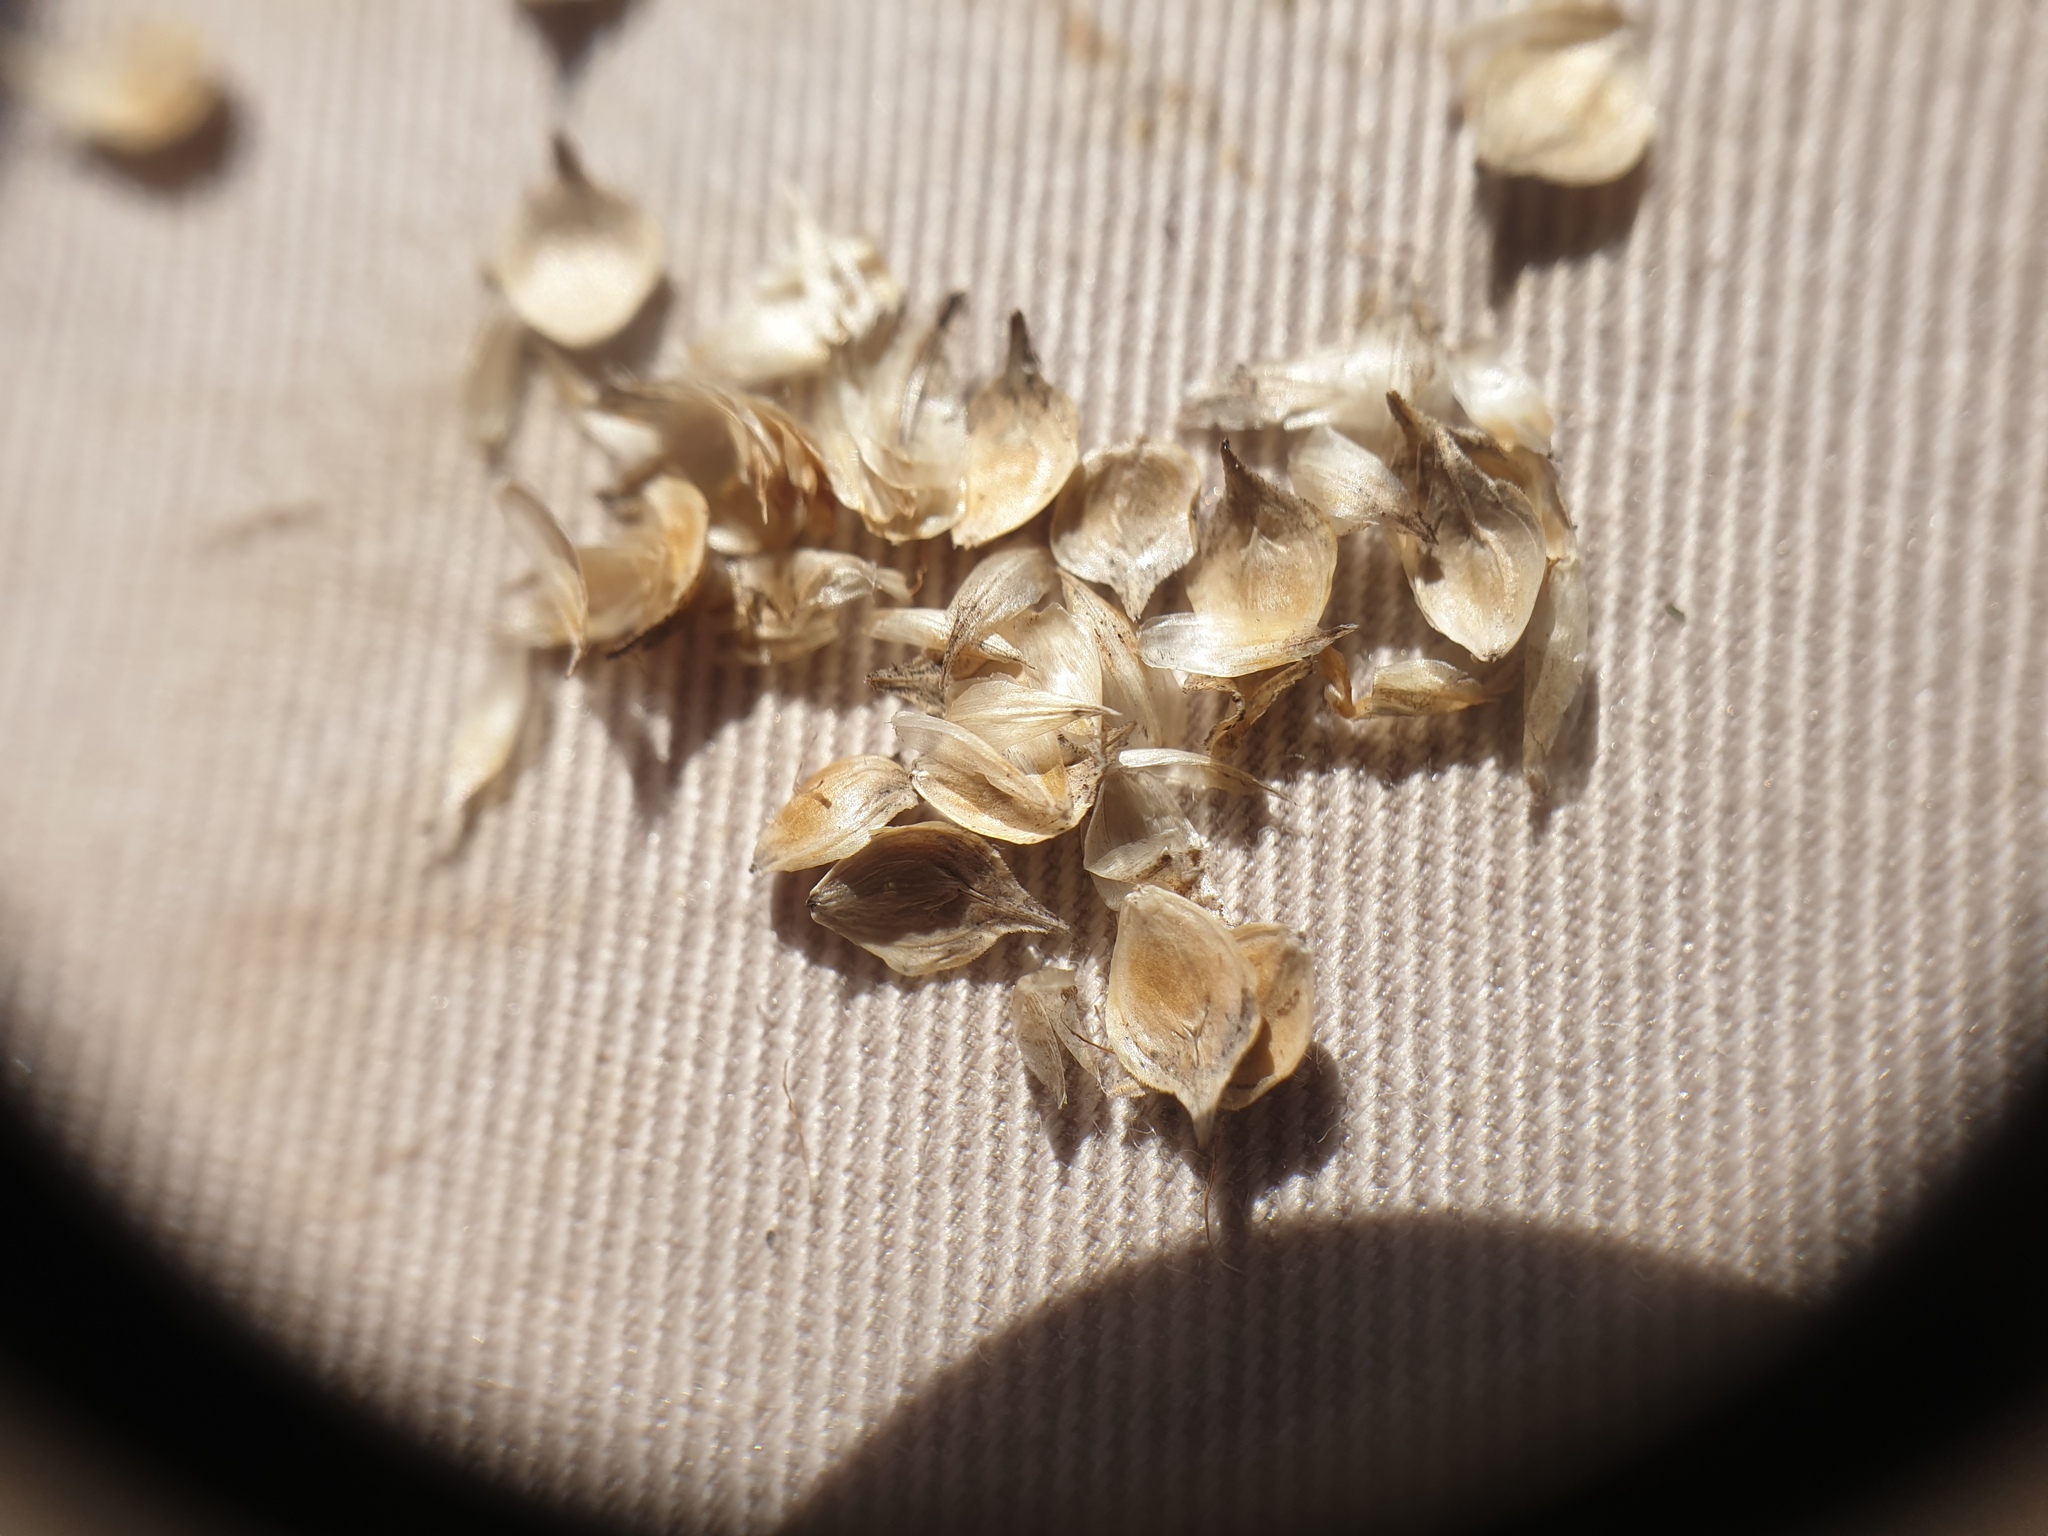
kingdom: Plantae
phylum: Tracheophyta
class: Liliopsida
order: Poales
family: Cyperaceae
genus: Carex
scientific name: Carex cumulata
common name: Accumulating sedge
